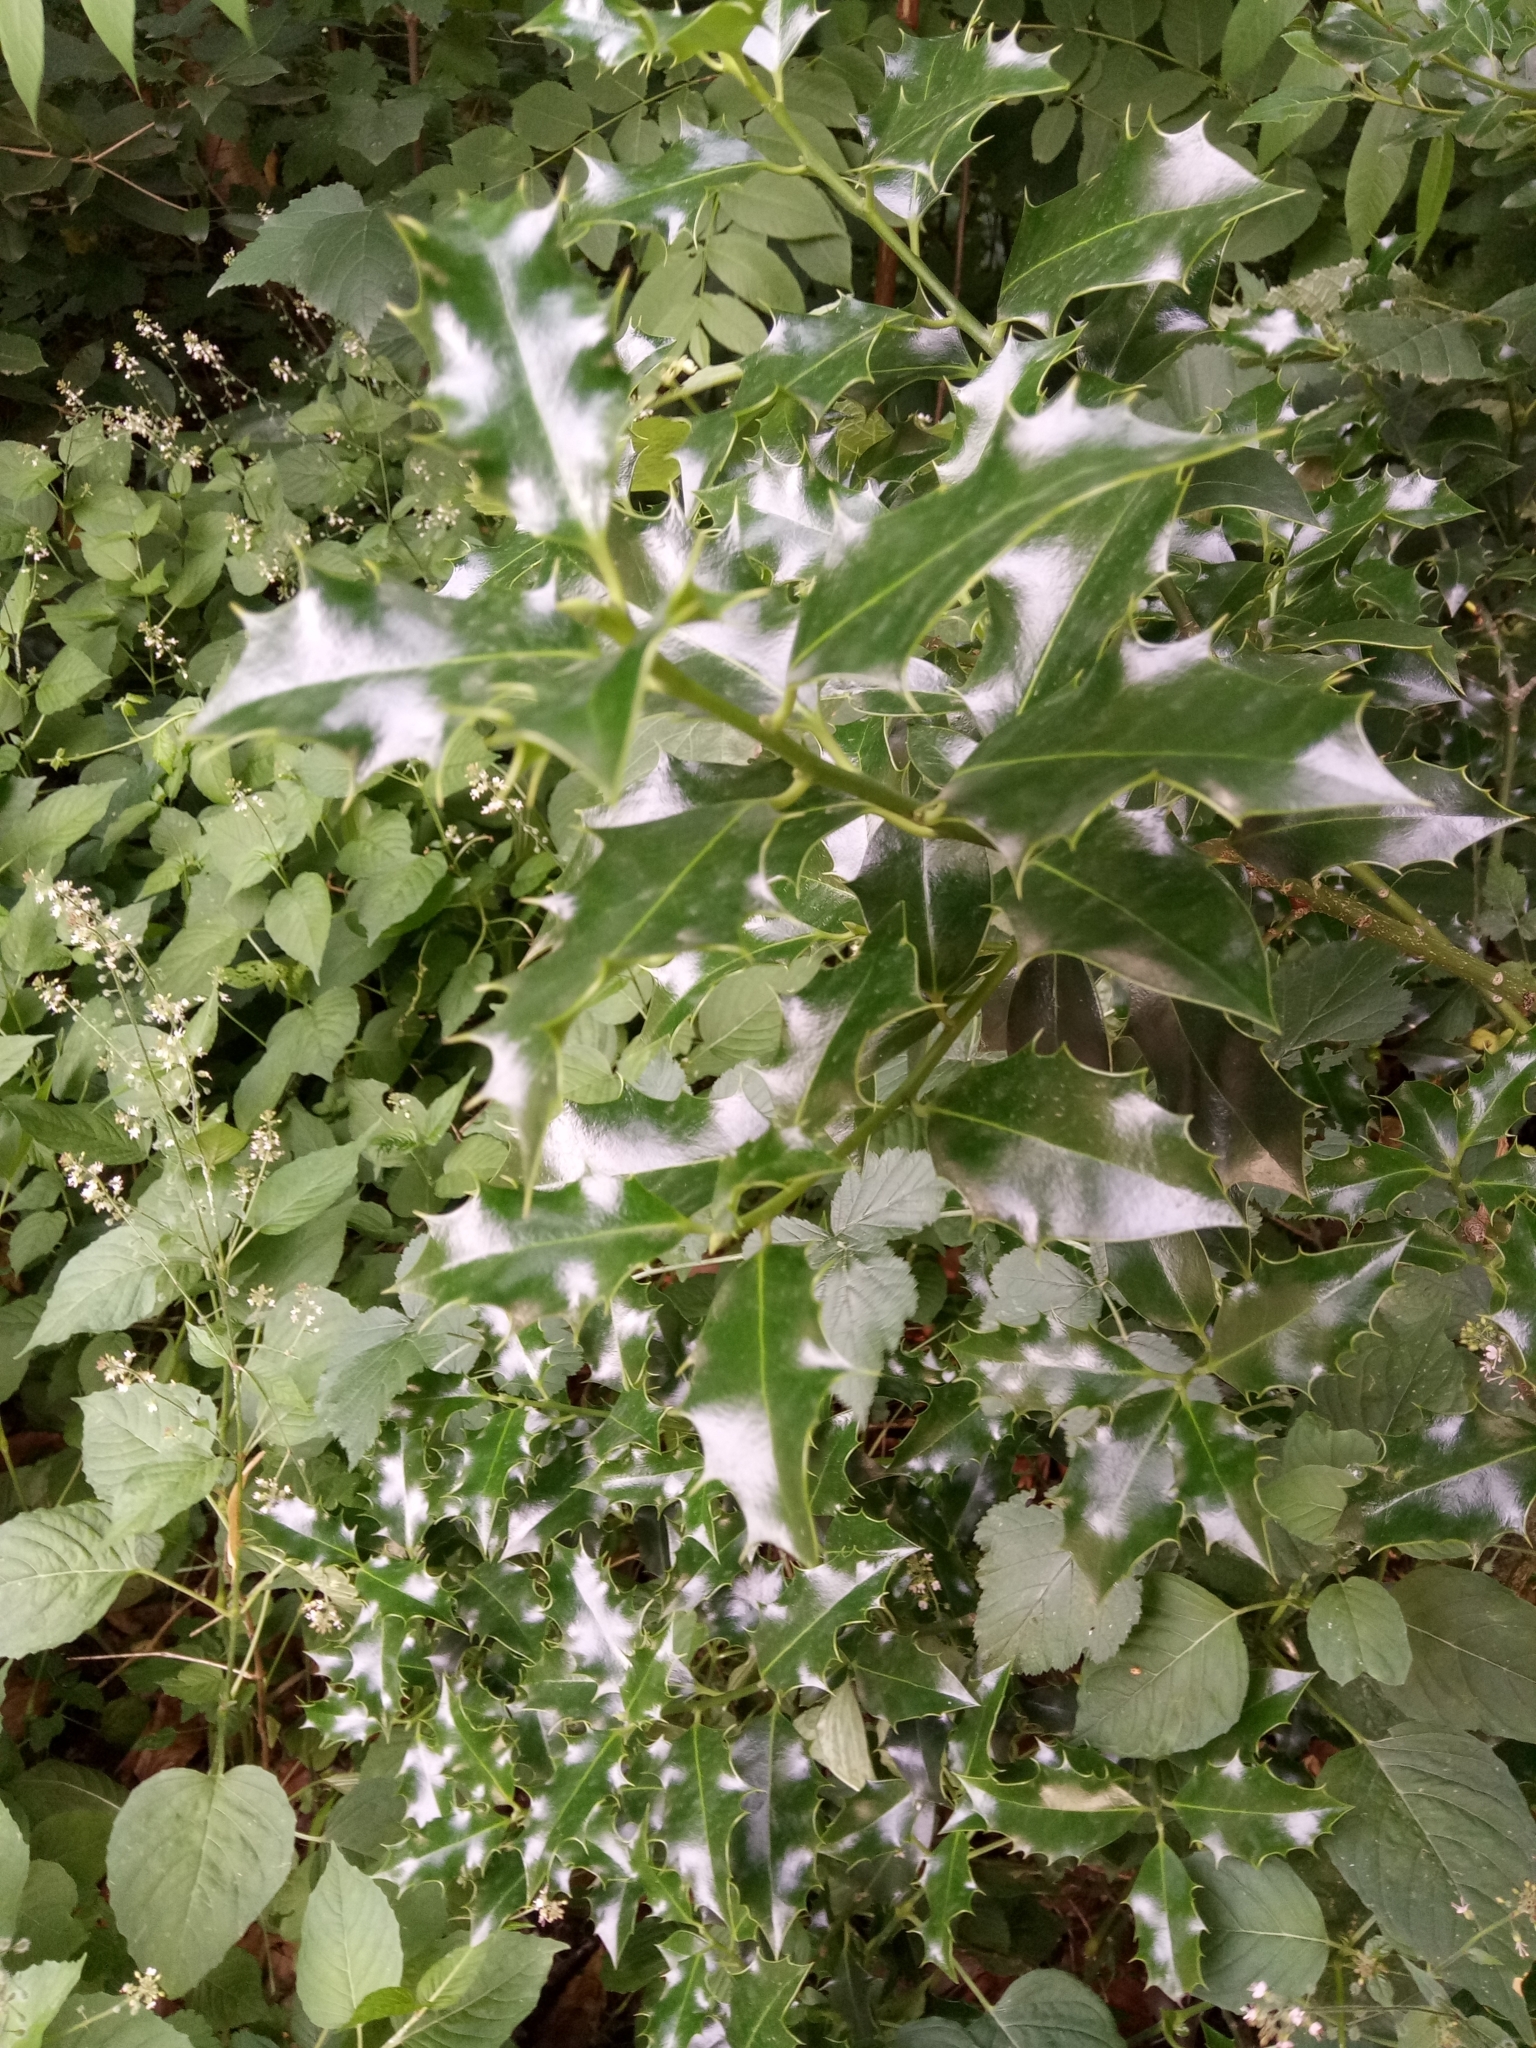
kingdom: Plantae
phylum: Tracheophyta
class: Magnoliopsida
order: Aquifoliales
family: Aquifoliaceae
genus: Ilex
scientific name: Ilex aquifolium
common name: English holly
